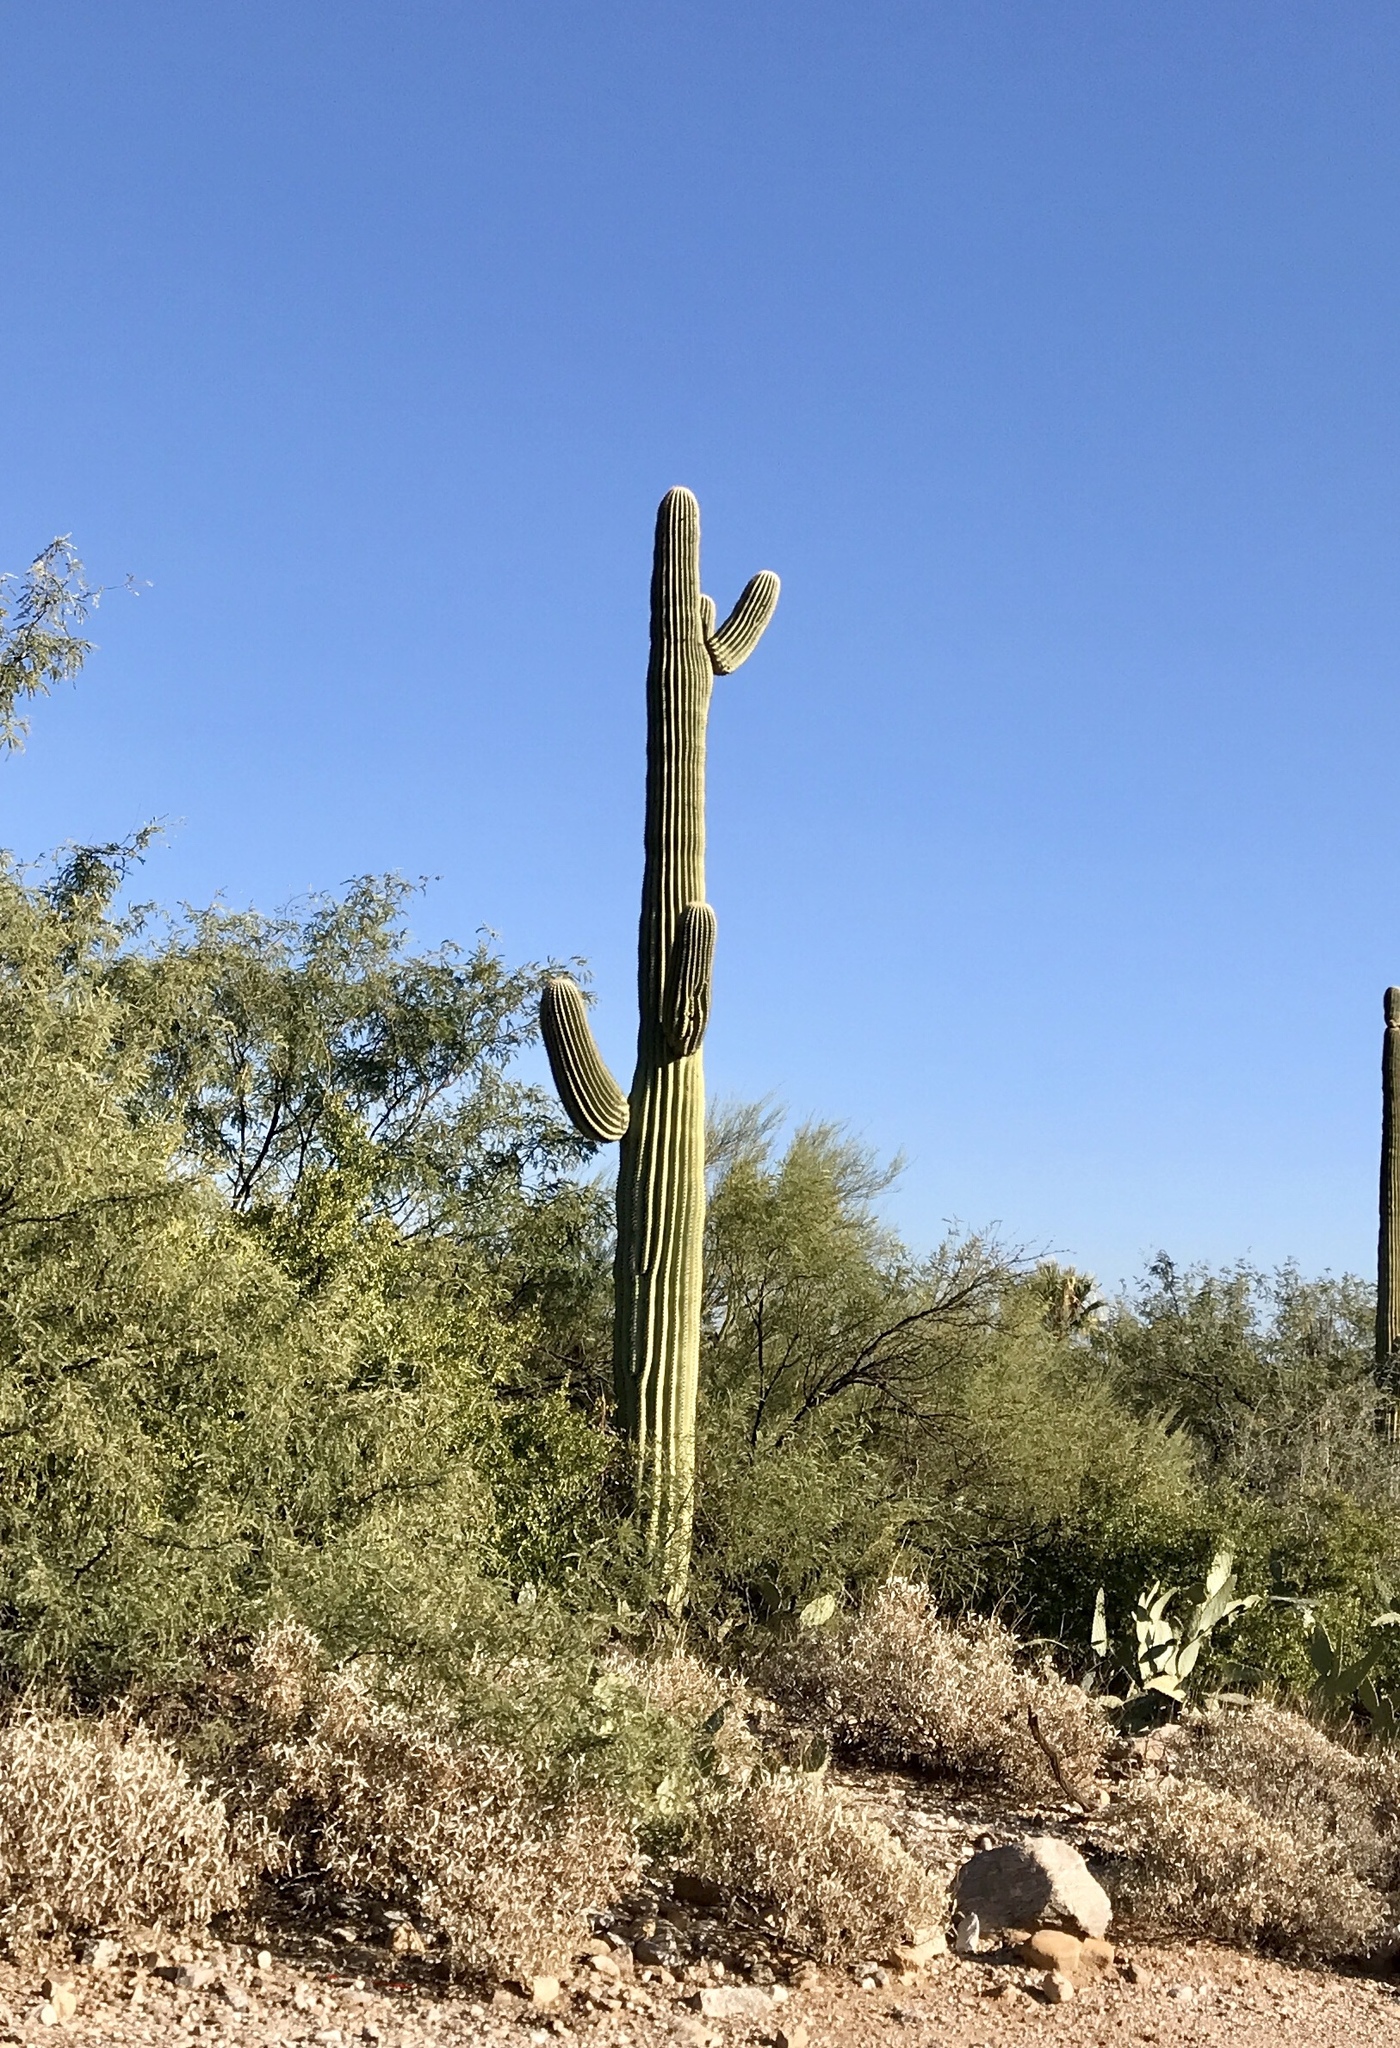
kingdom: Plantae
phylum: Tracheophyta
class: Magnoliopsida
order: Caryophyllales
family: Cactaceae
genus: Carnegiea
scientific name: Carnegiea gigantea
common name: Saguaro
